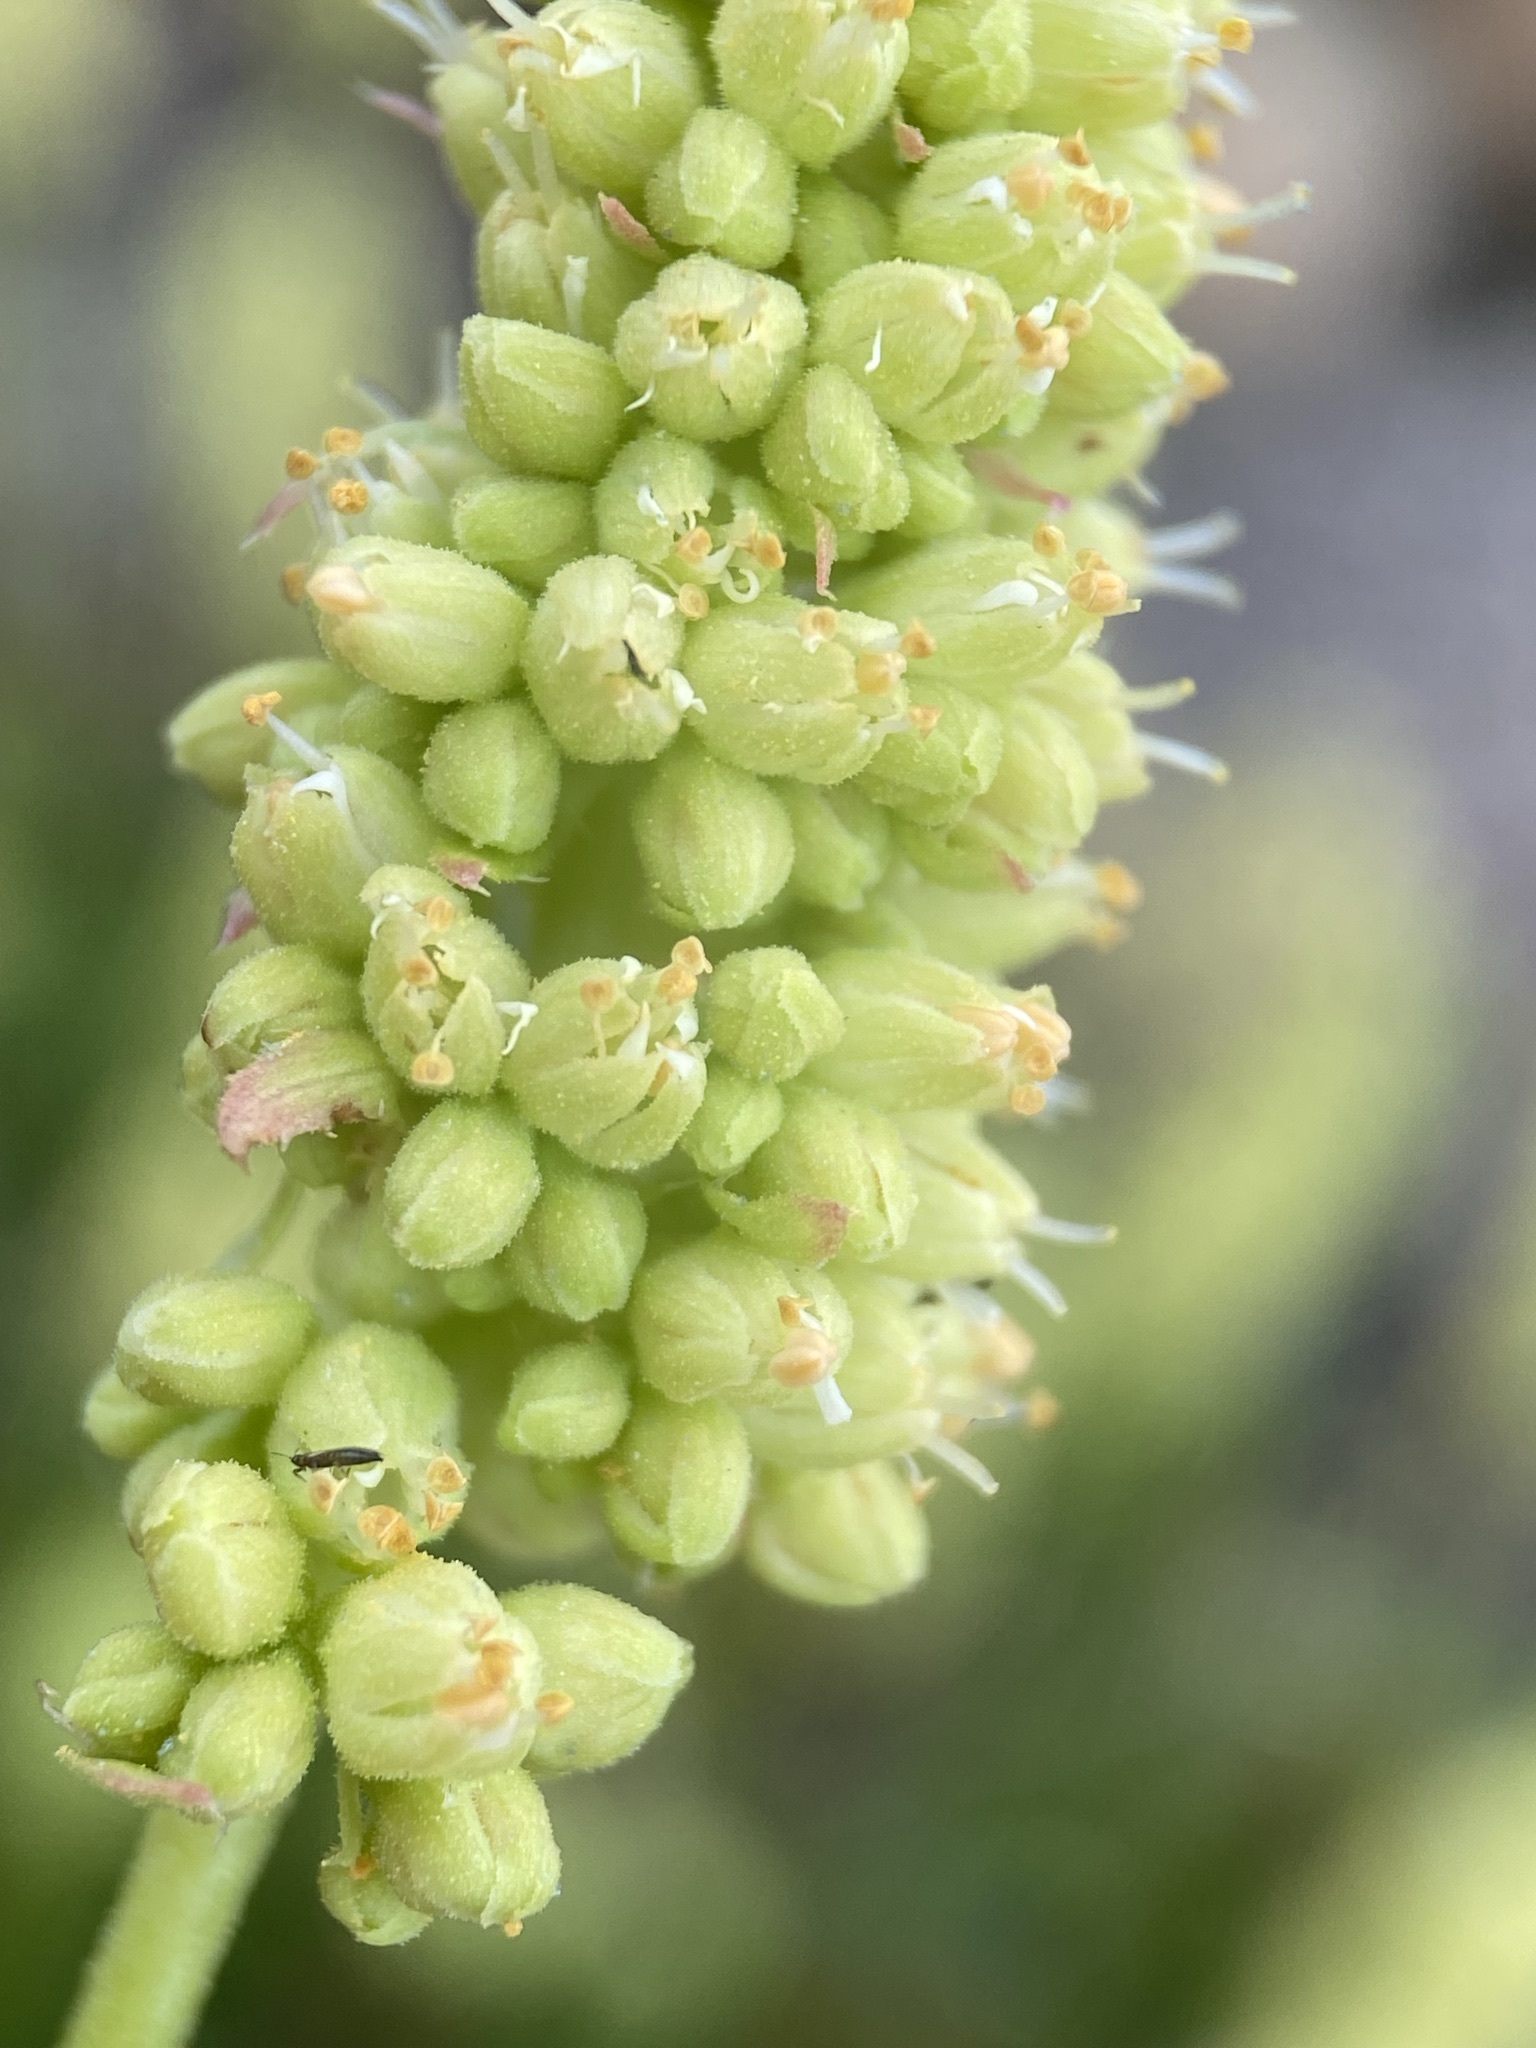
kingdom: Plantae
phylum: Tracheophyta
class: Magnoliopsida
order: Saxifragales
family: Saxifragaceae
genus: Heuchera
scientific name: Heuchera bracteata
